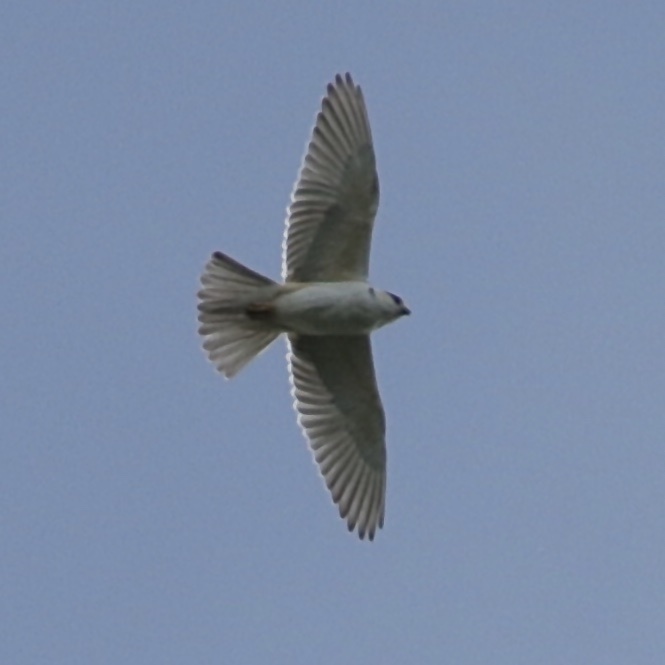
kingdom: Animalia
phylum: Chordata
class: Aves
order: Accipitriformes
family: Accipitridae
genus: Gampsonyx
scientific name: Gampsonyx swainsonii
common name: Pearl kite
